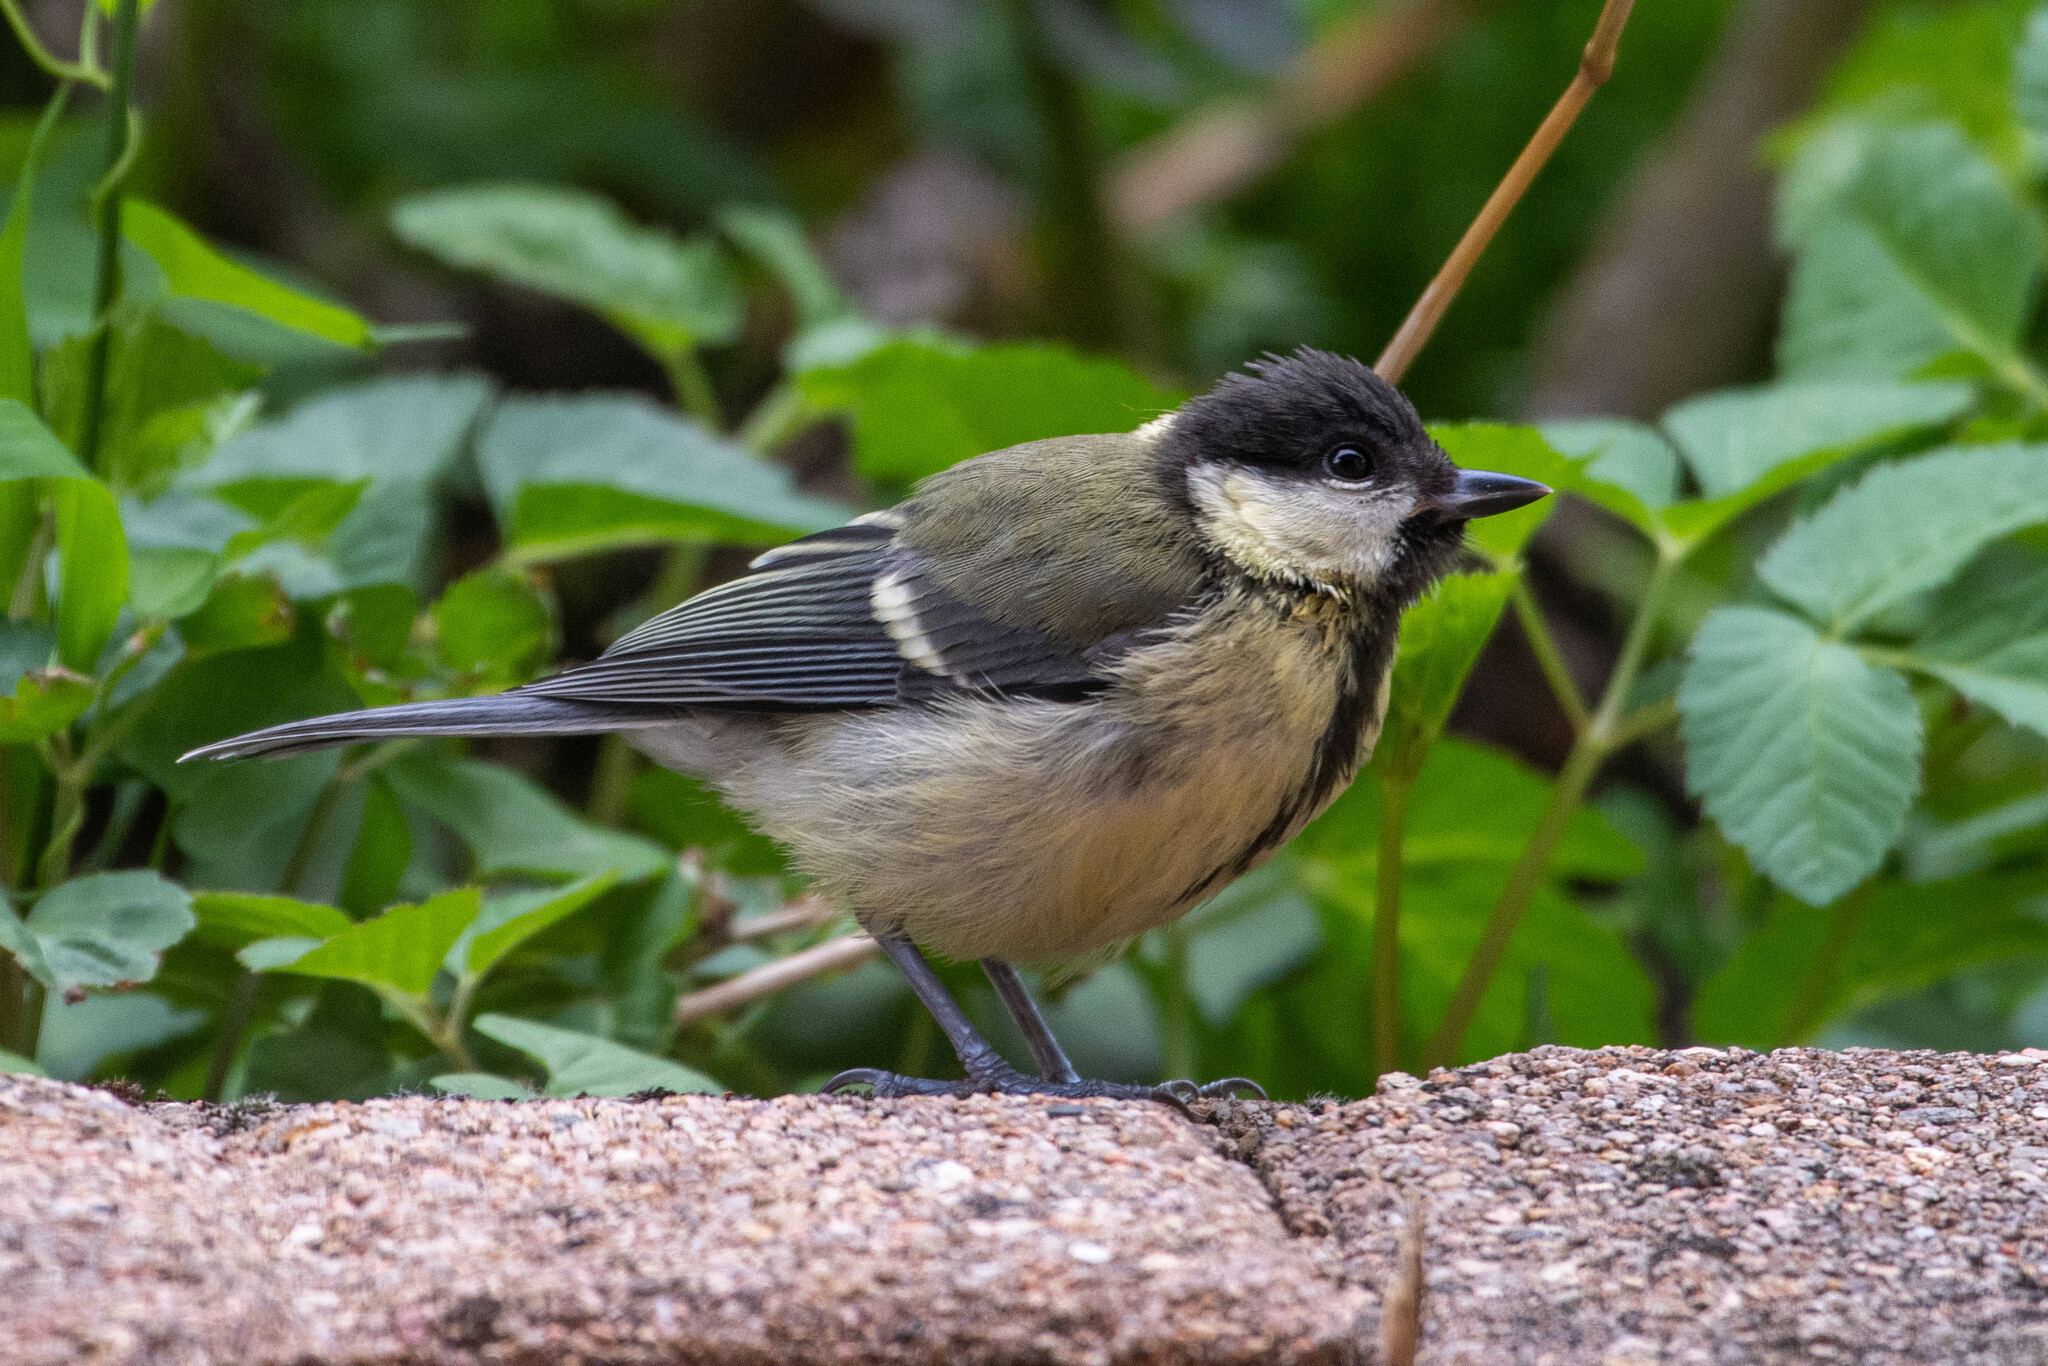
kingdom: Animalia
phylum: Chordata
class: Aves
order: Passeriformes
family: Paridae
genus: Parus
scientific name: Parus major
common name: Great tit
